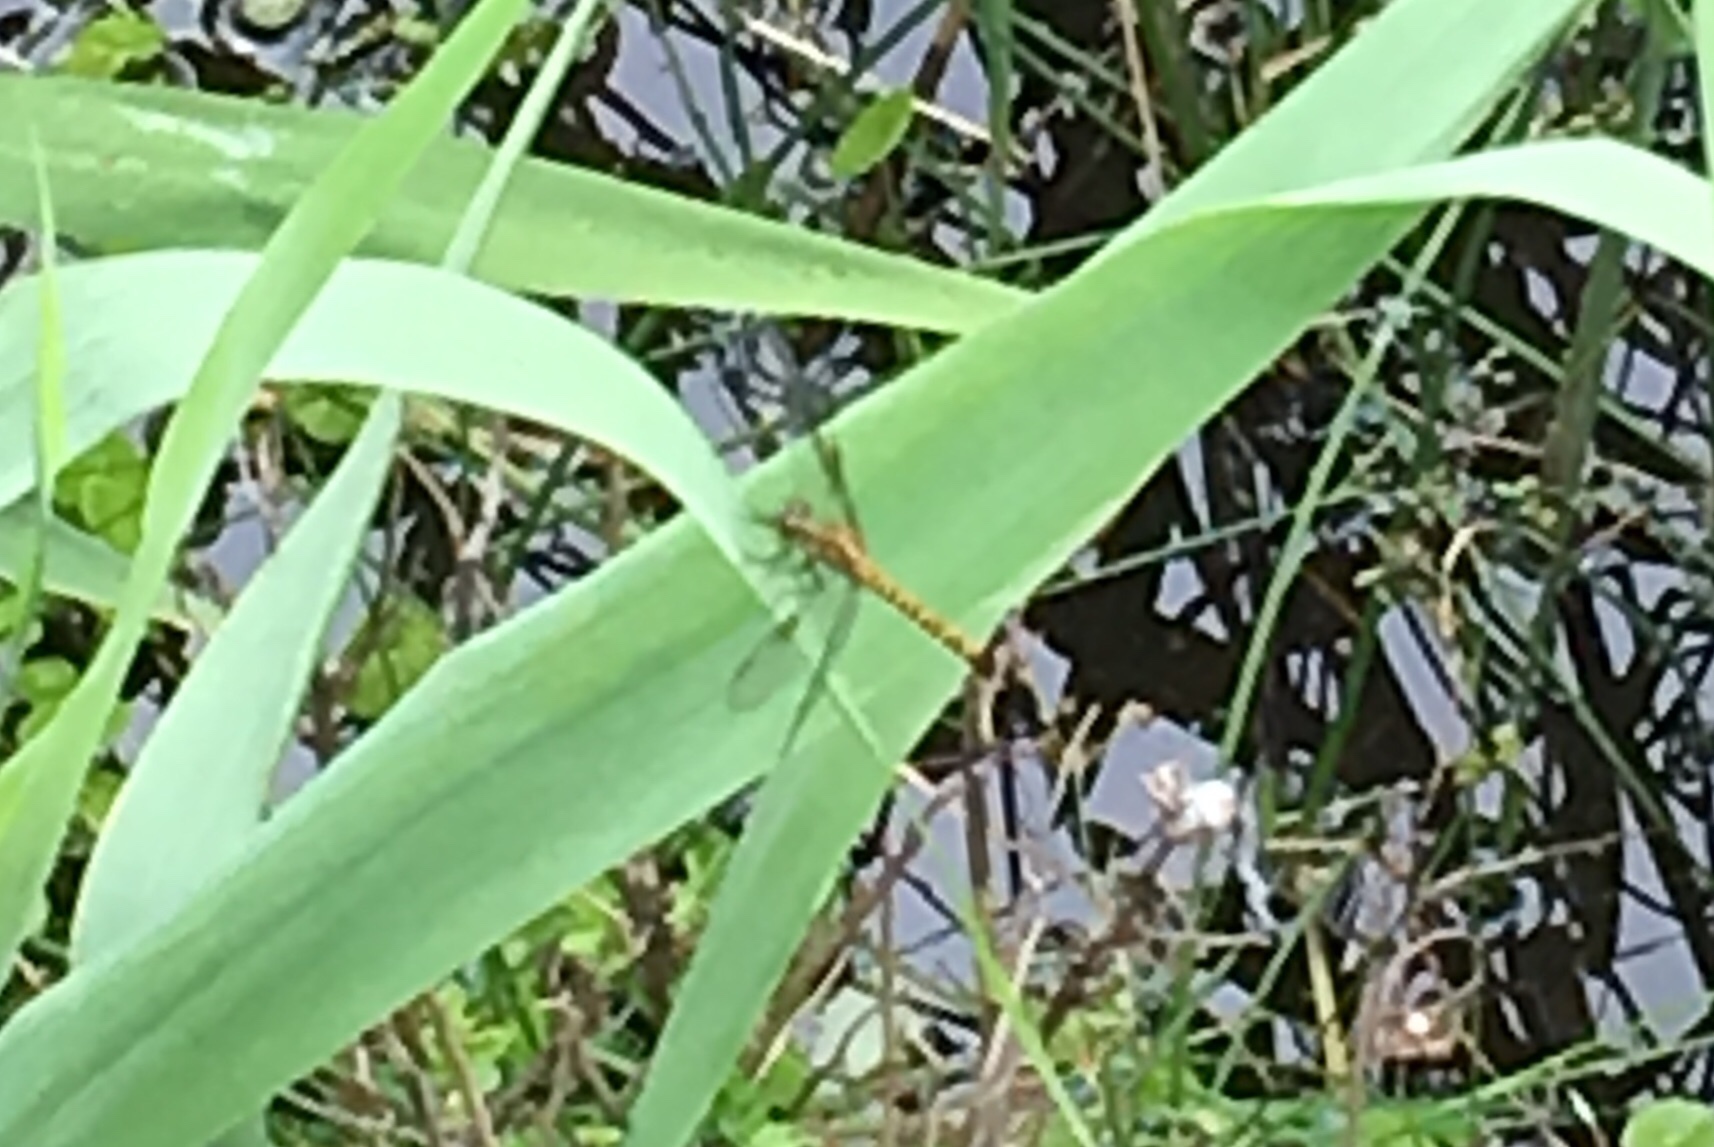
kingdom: Animalia
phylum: Arthropoda
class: Insecta
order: Odonata
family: Libellulidae
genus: Erythrodiplax
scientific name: Erythrodiplax berenice
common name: Seaside dragonlet
